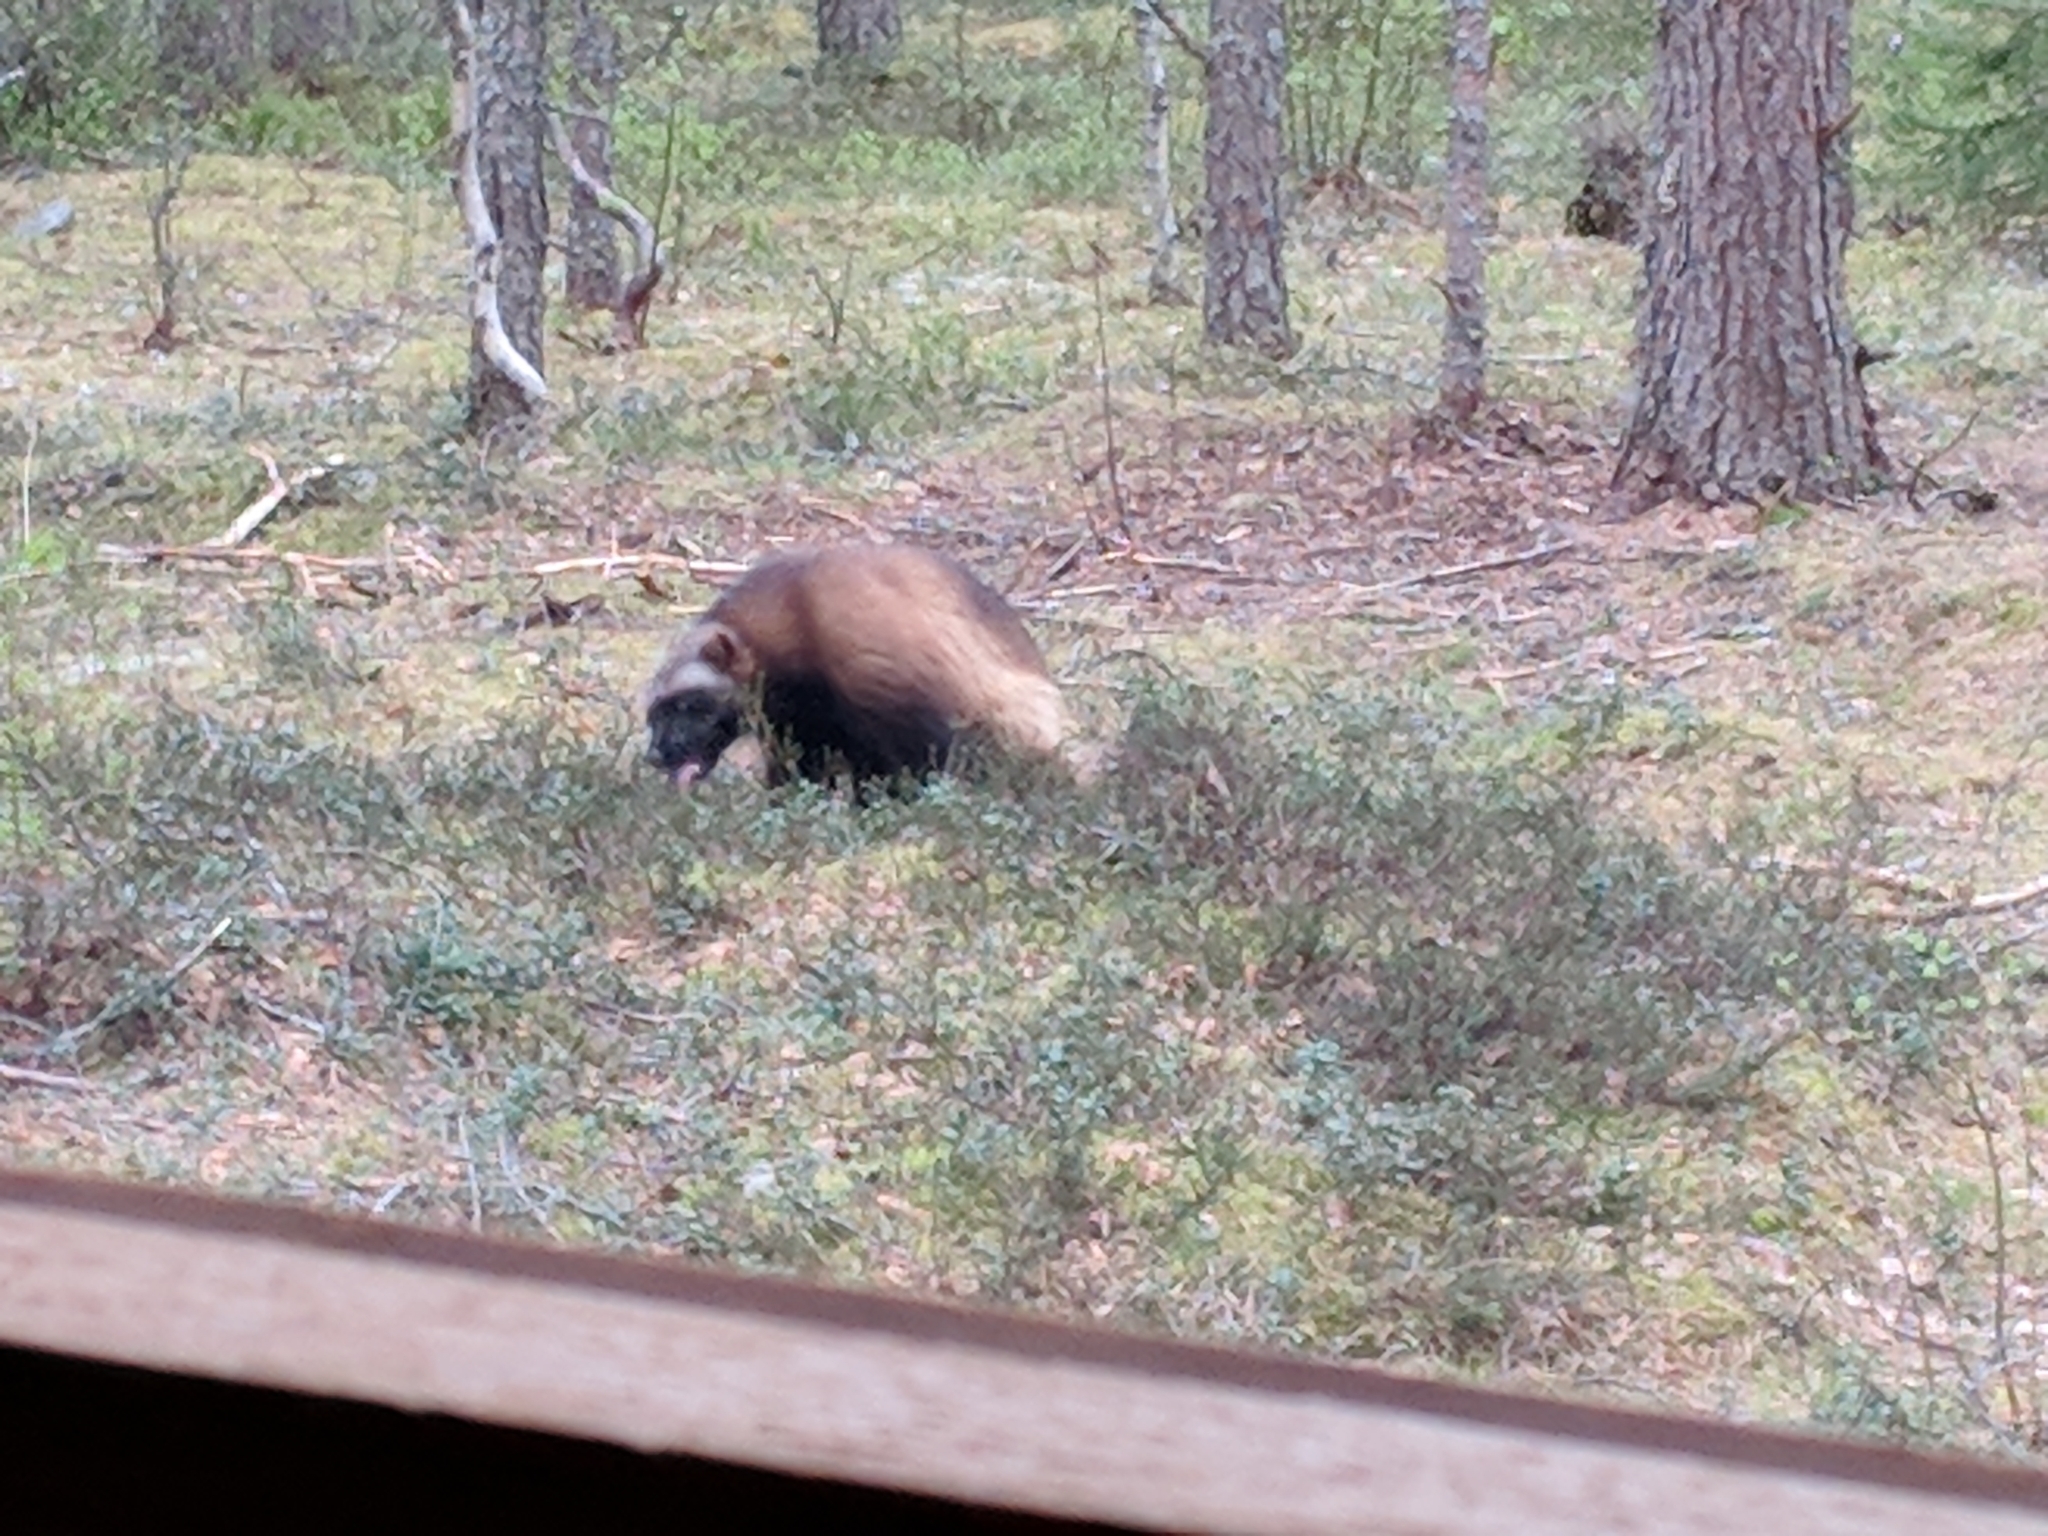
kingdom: Animalia
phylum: Chordata
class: Mammalia
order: Carnivora
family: Mustelidae
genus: Gulo
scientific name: Gulo gulo
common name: Wolverine
